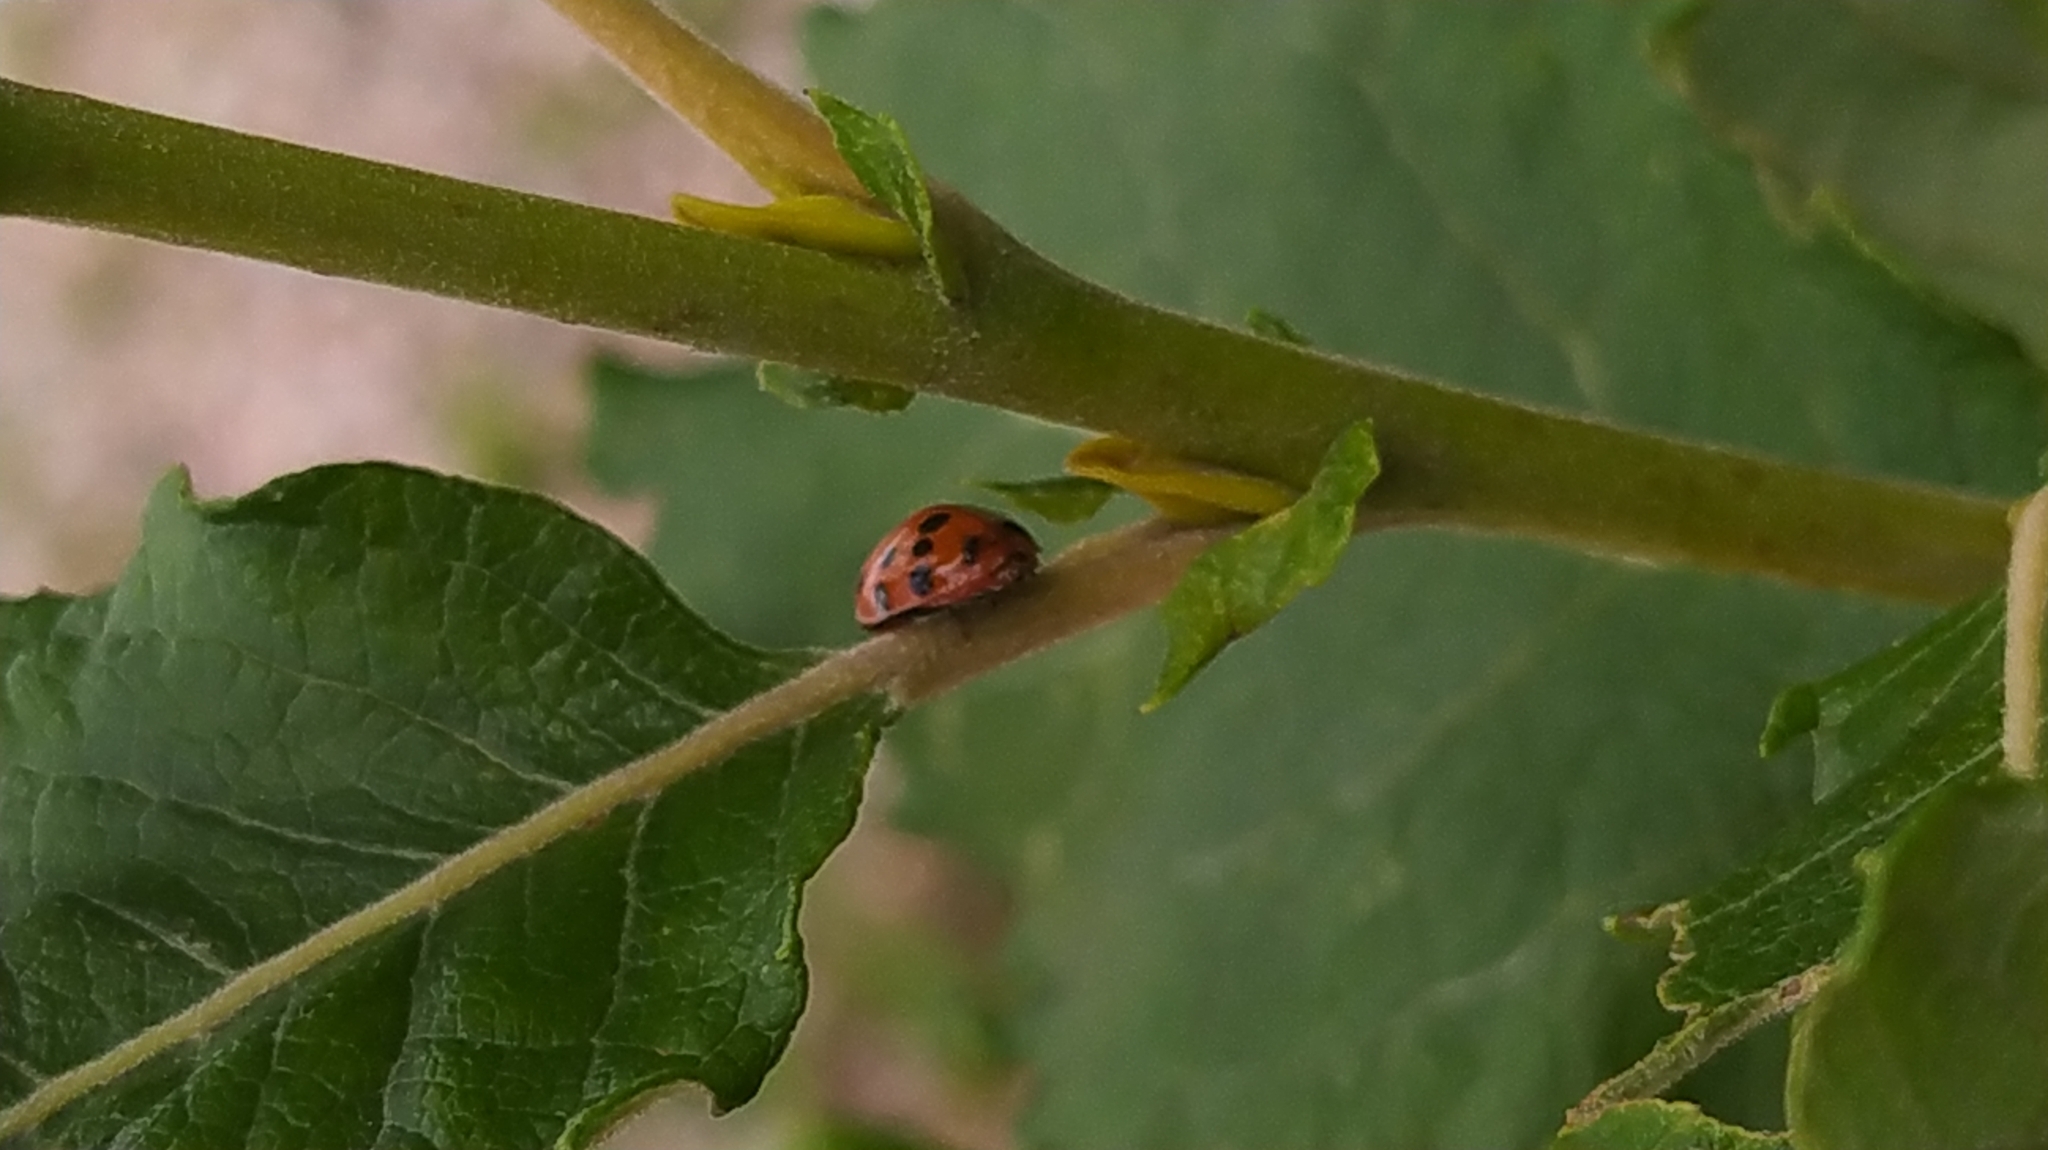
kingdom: Animalia
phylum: Arthropoda
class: Insecta
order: Coleoptera
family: Coccinellidae
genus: Harmonia
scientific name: Harmonia axyridis
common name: Harlequin ladybird
